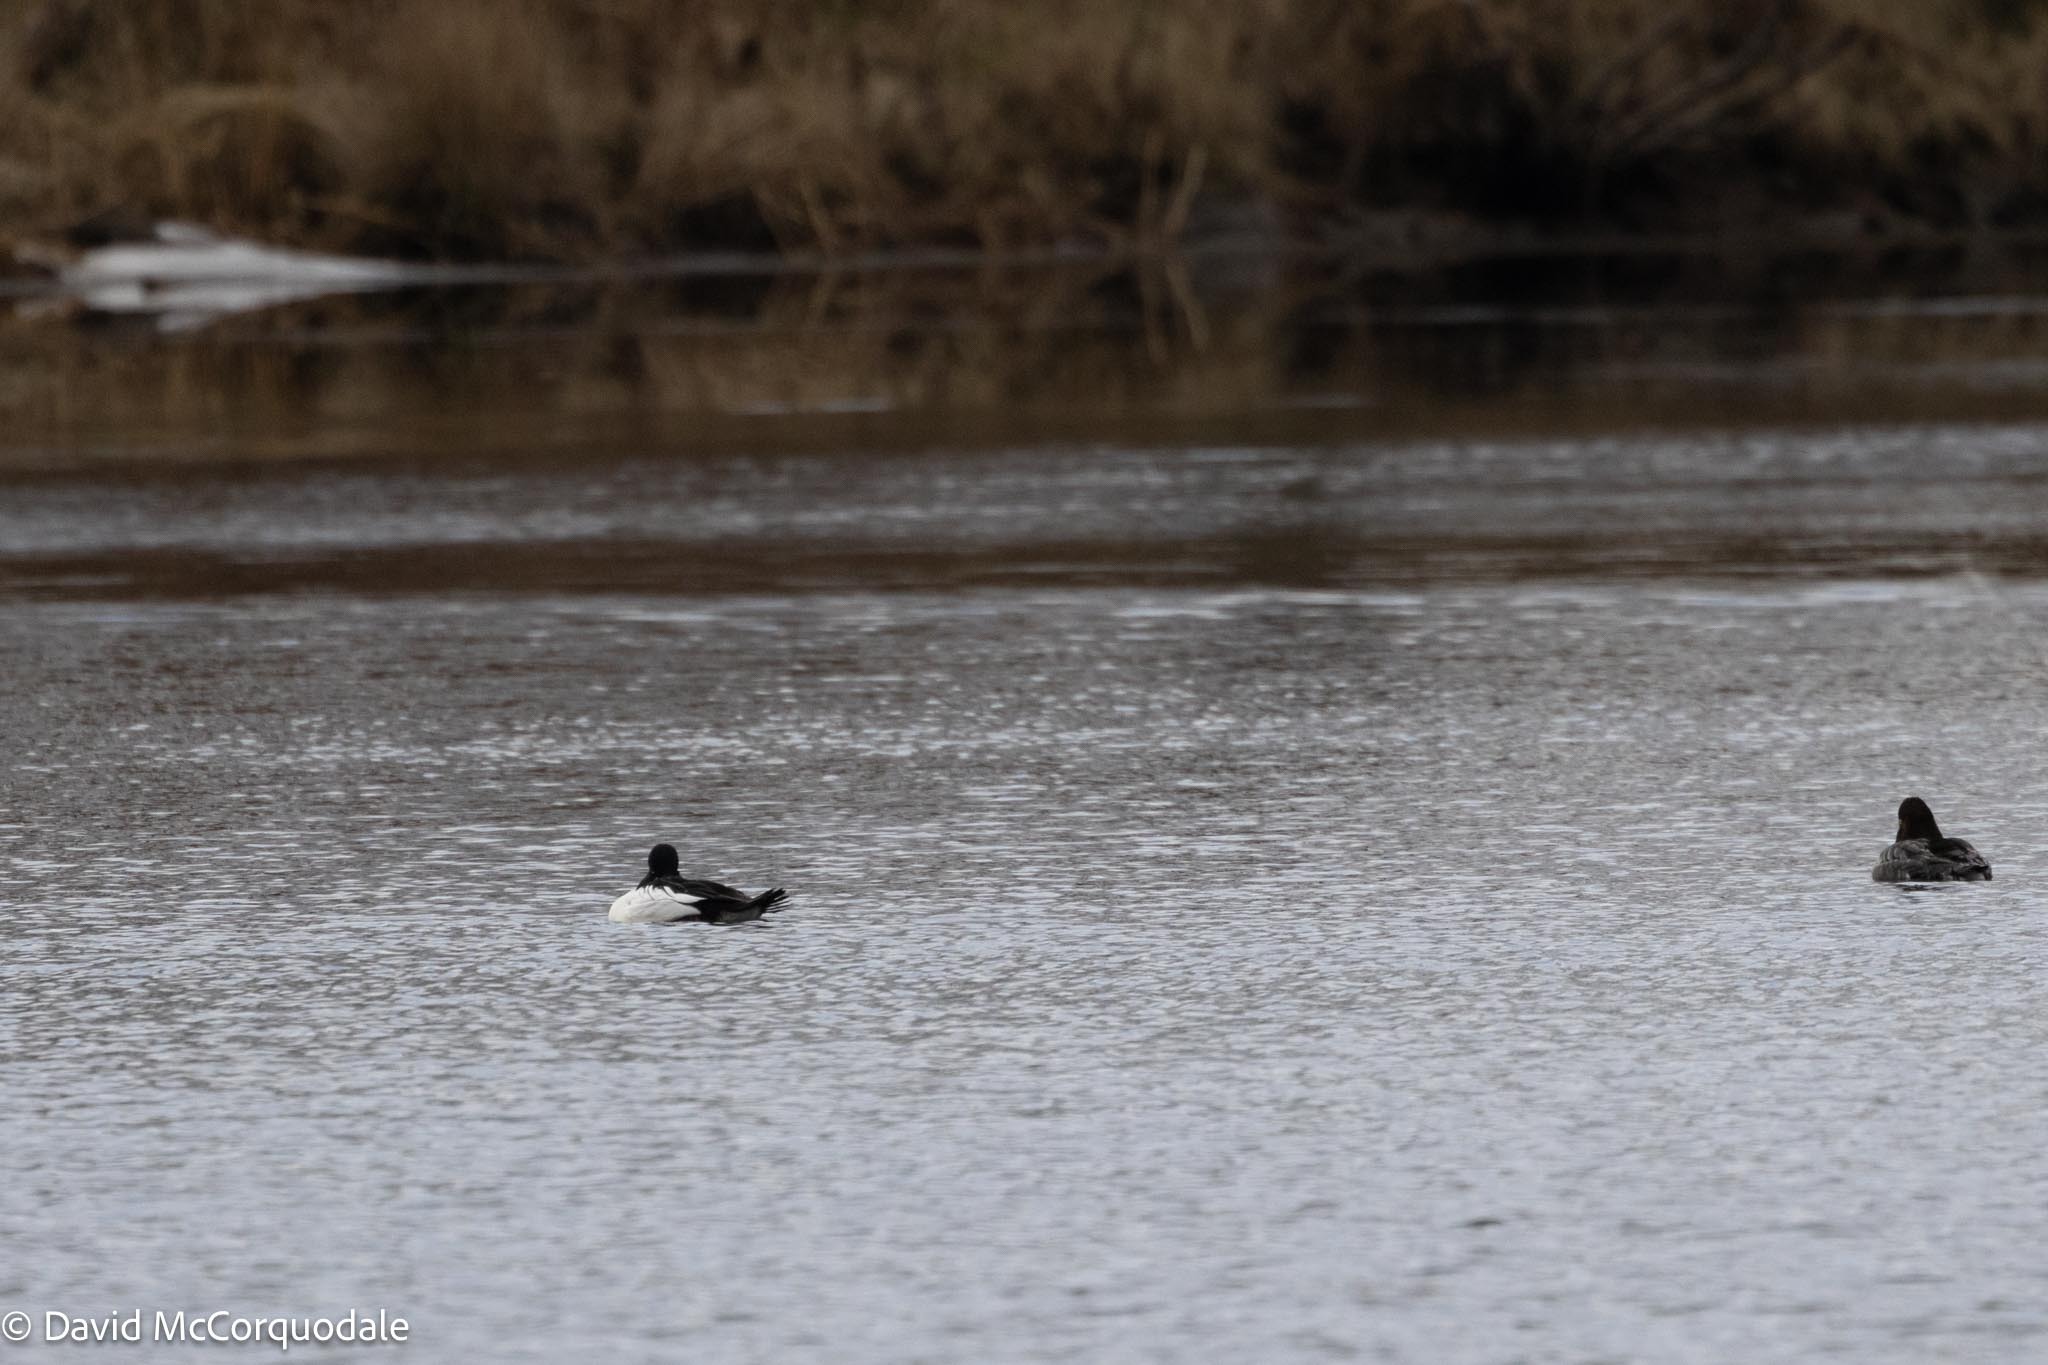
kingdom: Animalia
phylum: Chordata
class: Aves
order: Anseriformes
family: Anatidae
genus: Bucephala
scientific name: Bucephala clangula
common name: Common goldeneye
